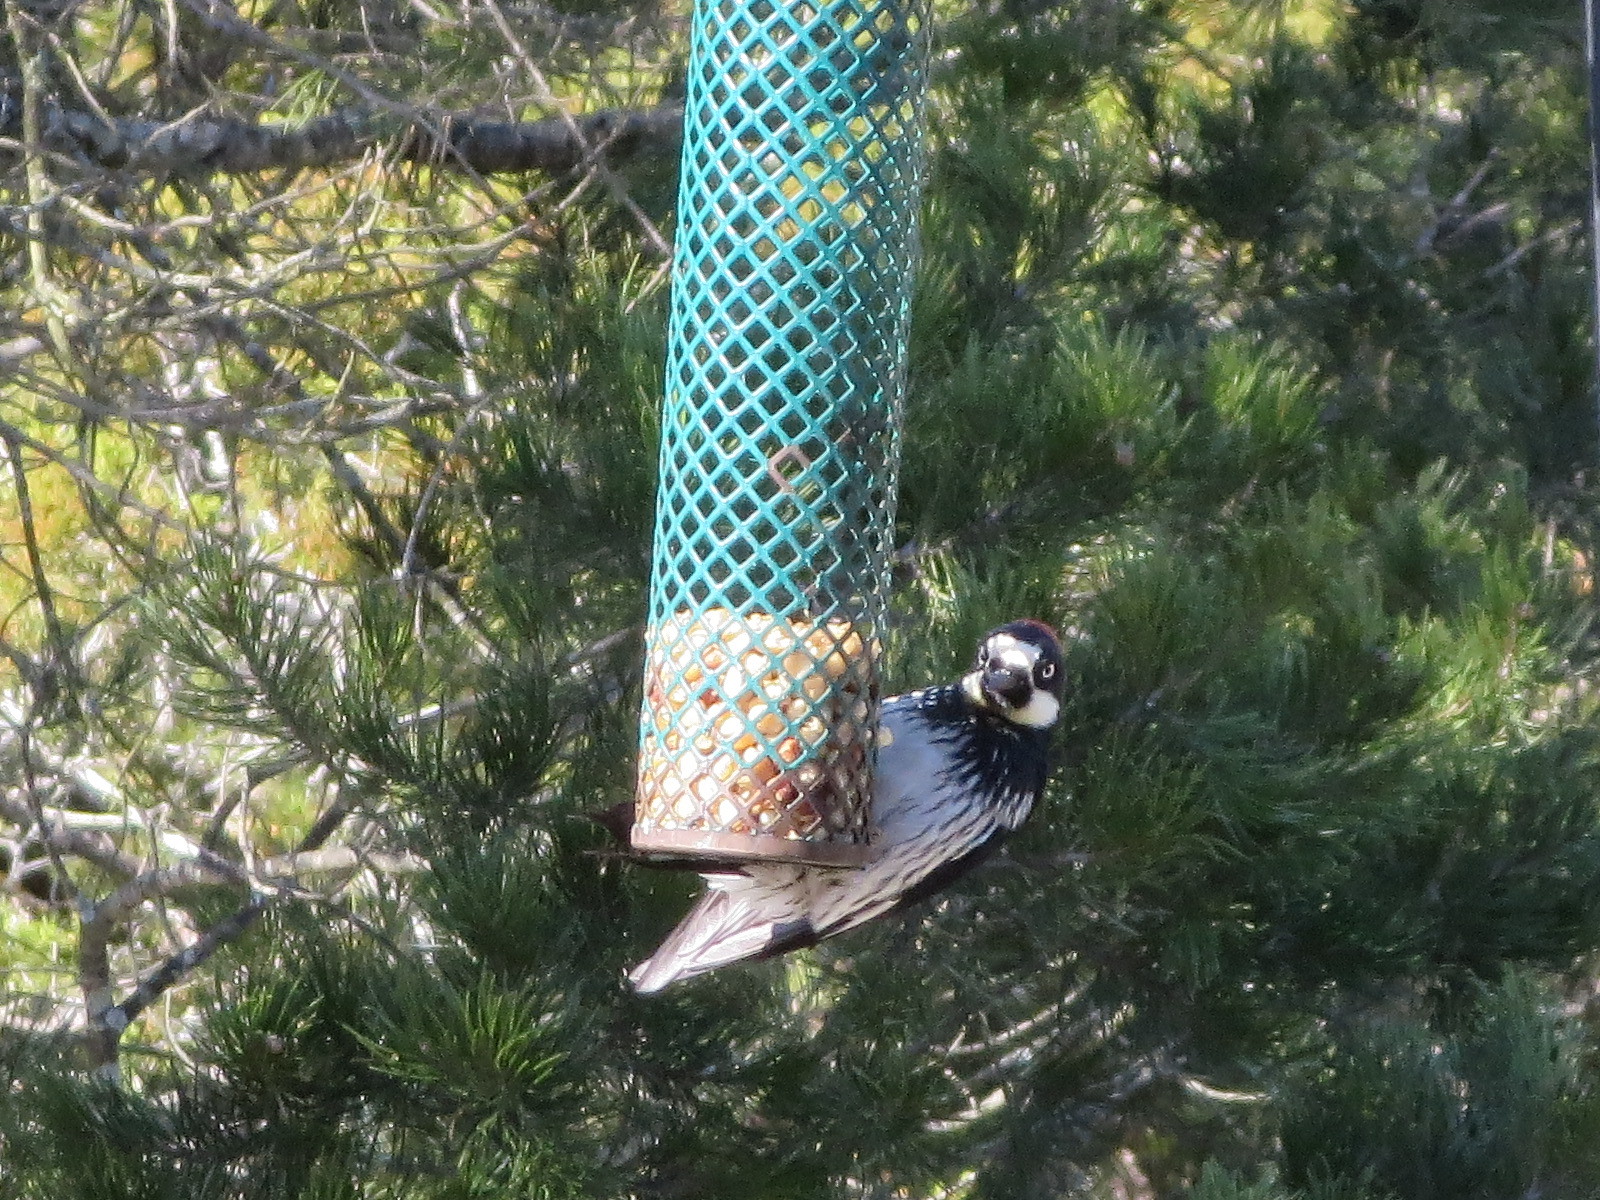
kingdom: Animalia
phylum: Chordata
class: Aves
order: Piciformes
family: Picidae
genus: Melanerpes
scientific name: Melanerpes formicivorus
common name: Acorn woodpecker
